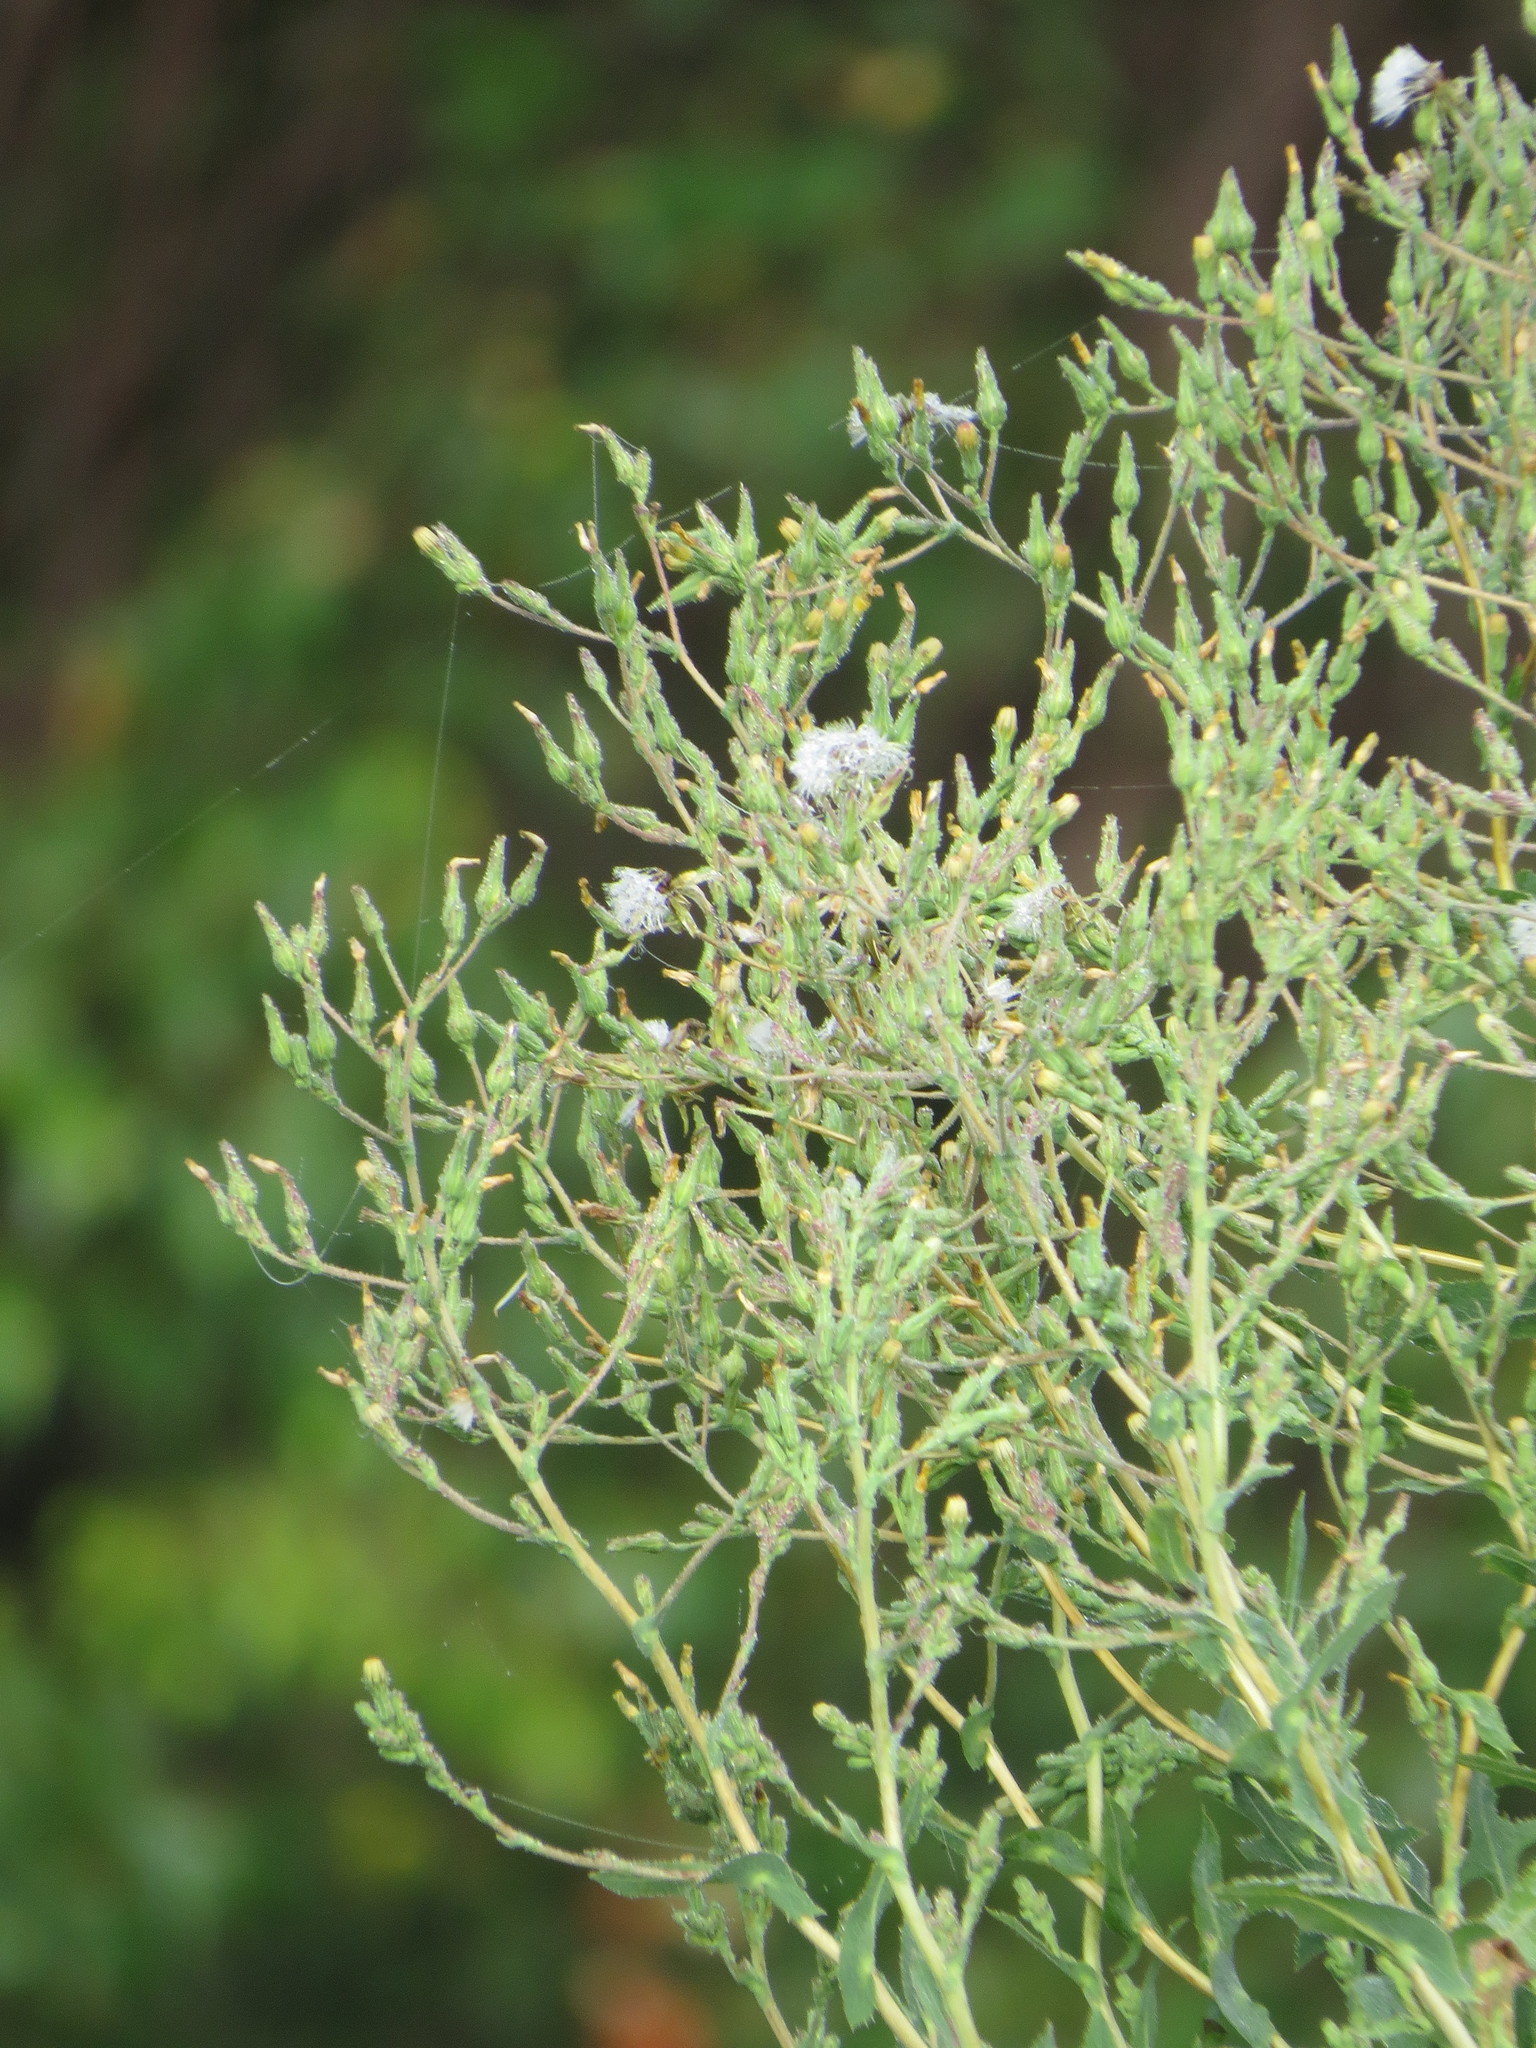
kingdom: Plantae
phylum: Tracheophyta
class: Magnoliopsida
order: Asterales
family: Asteraceae
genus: Lactuca
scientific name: Lactuca serriola
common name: Prickly lettuce
